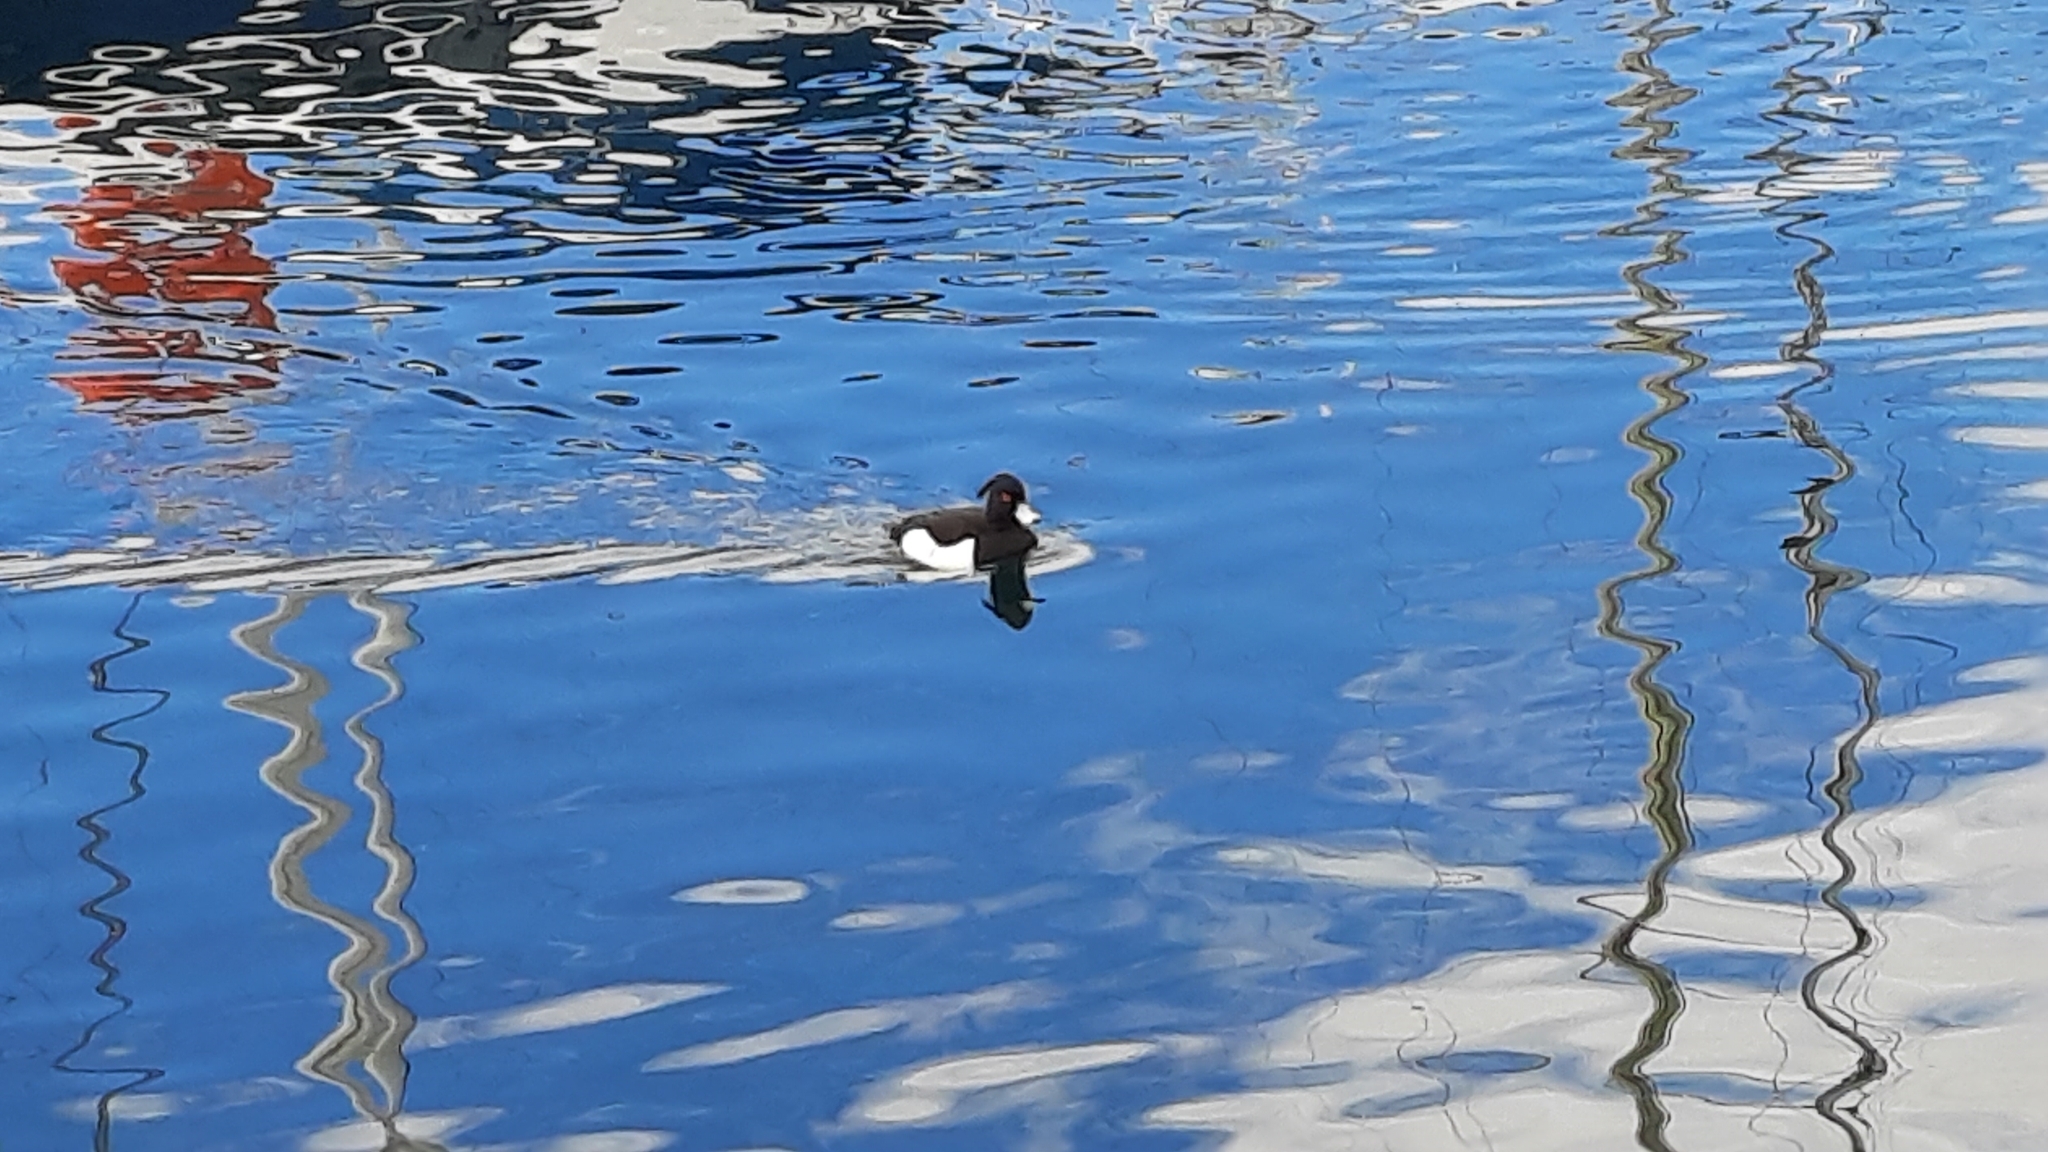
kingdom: Animalia
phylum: Chordata
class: Aves
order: Anseriformes
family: Anatidae
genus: Aythya
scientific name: Aythya fuligula
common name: Tufted duck
